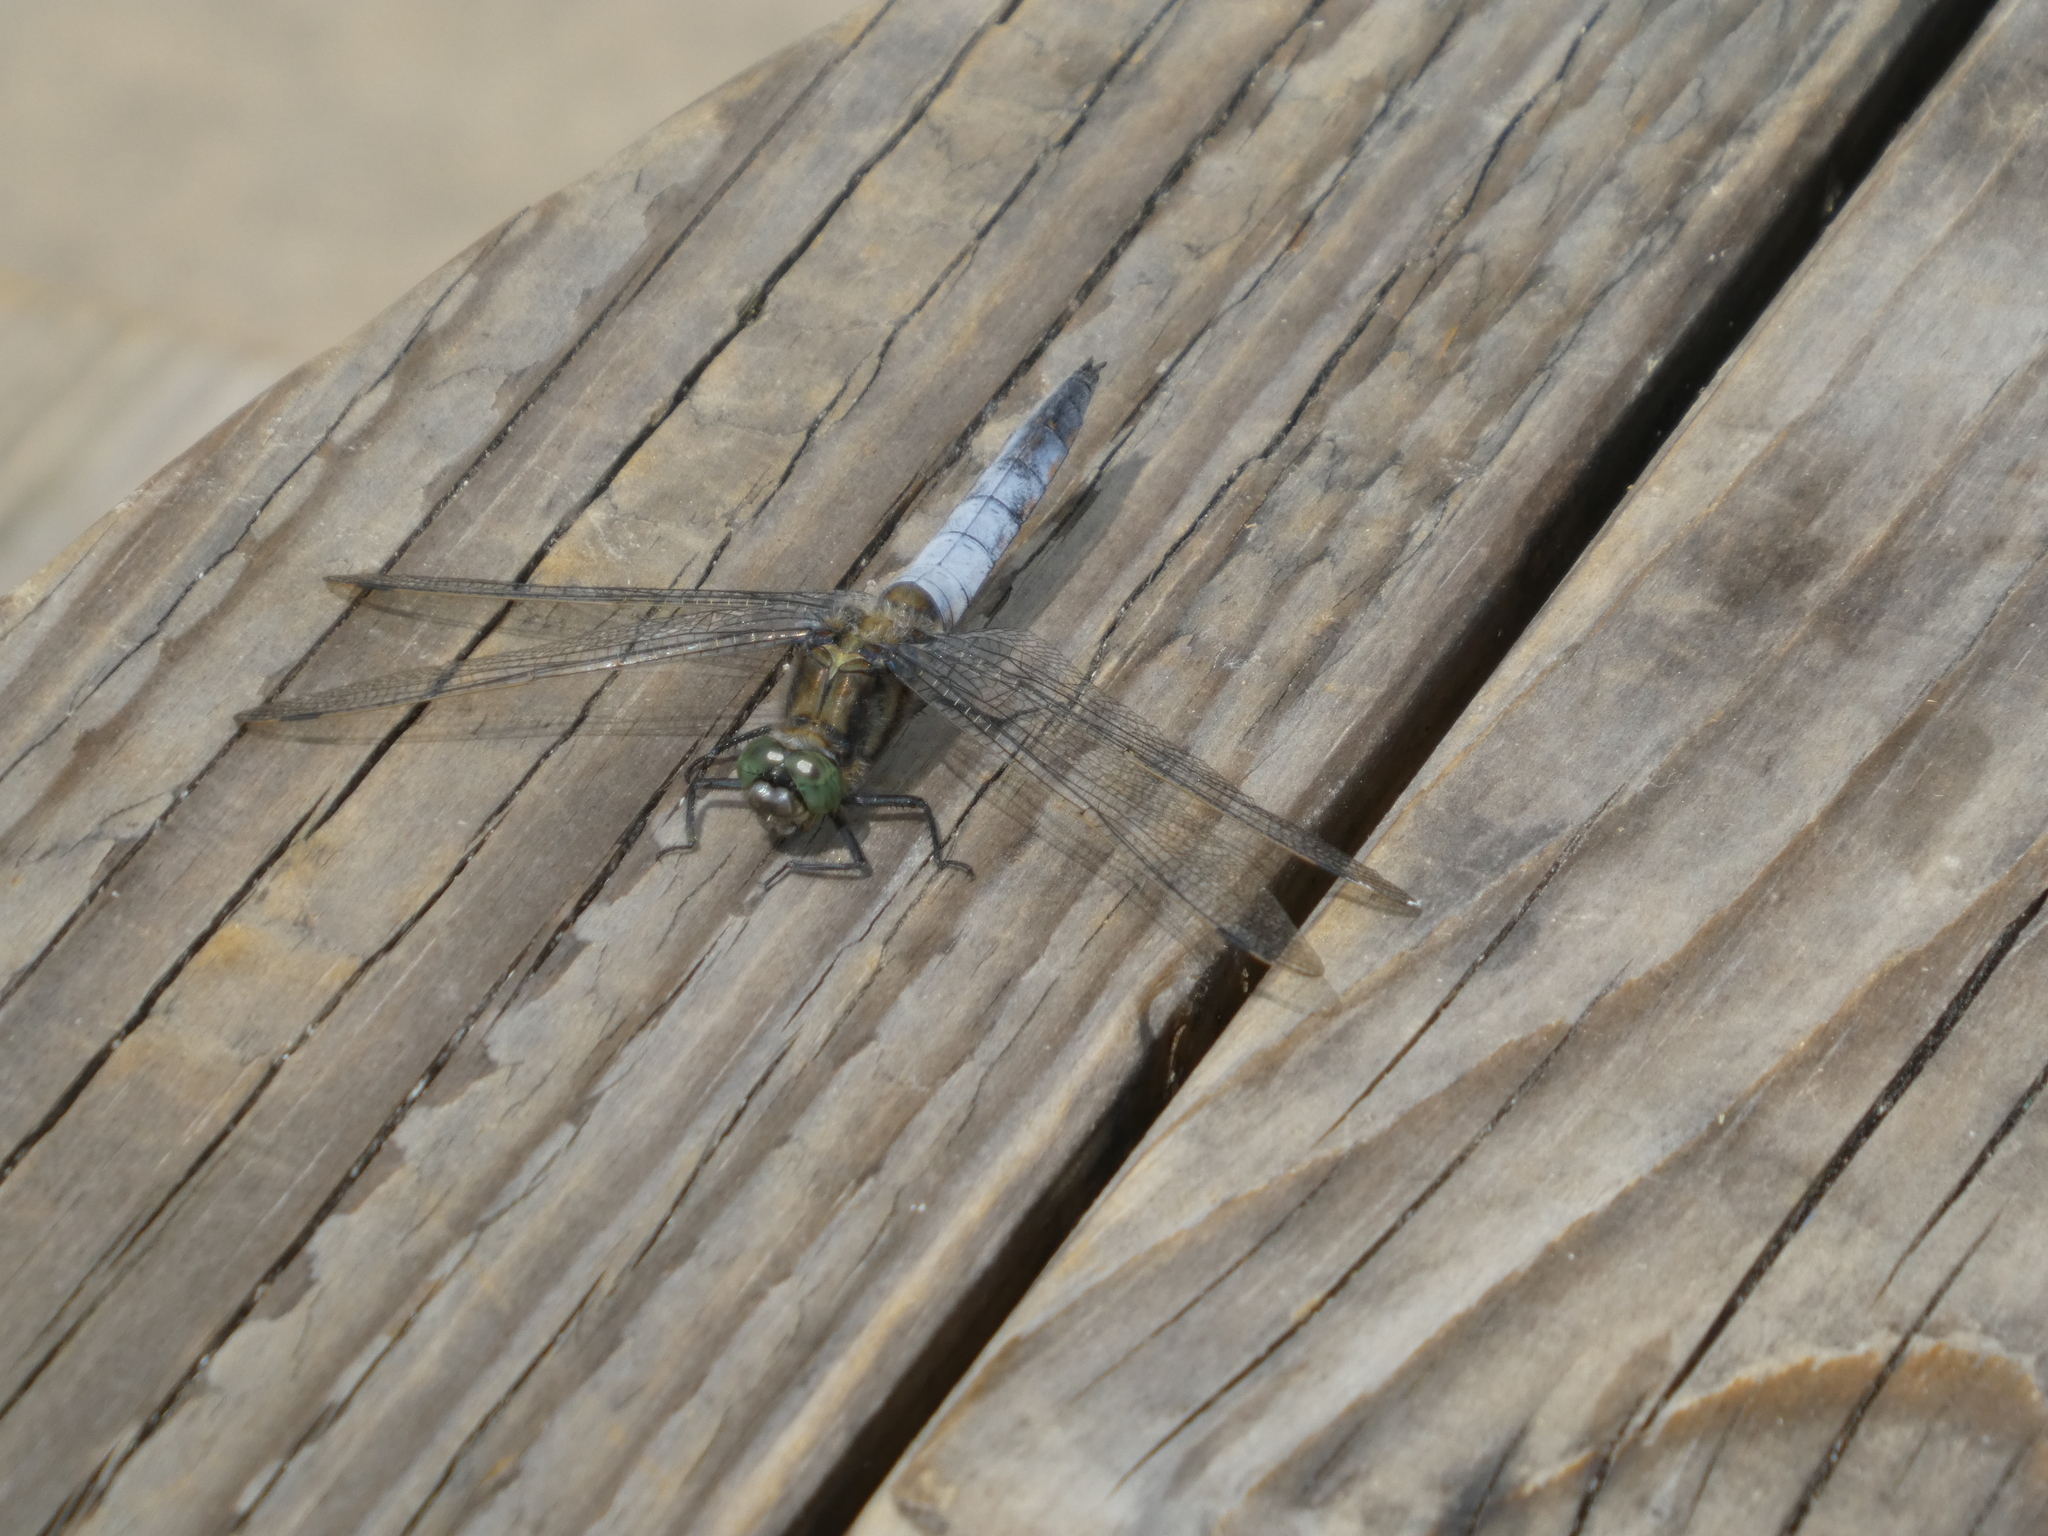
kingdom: Animalia
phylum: Arthropoda
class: Insecta
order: Odonata
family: Libellulidae
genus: Orthetrum
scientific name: Orthetrum cancellatum
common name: Black-tailed skimmer
